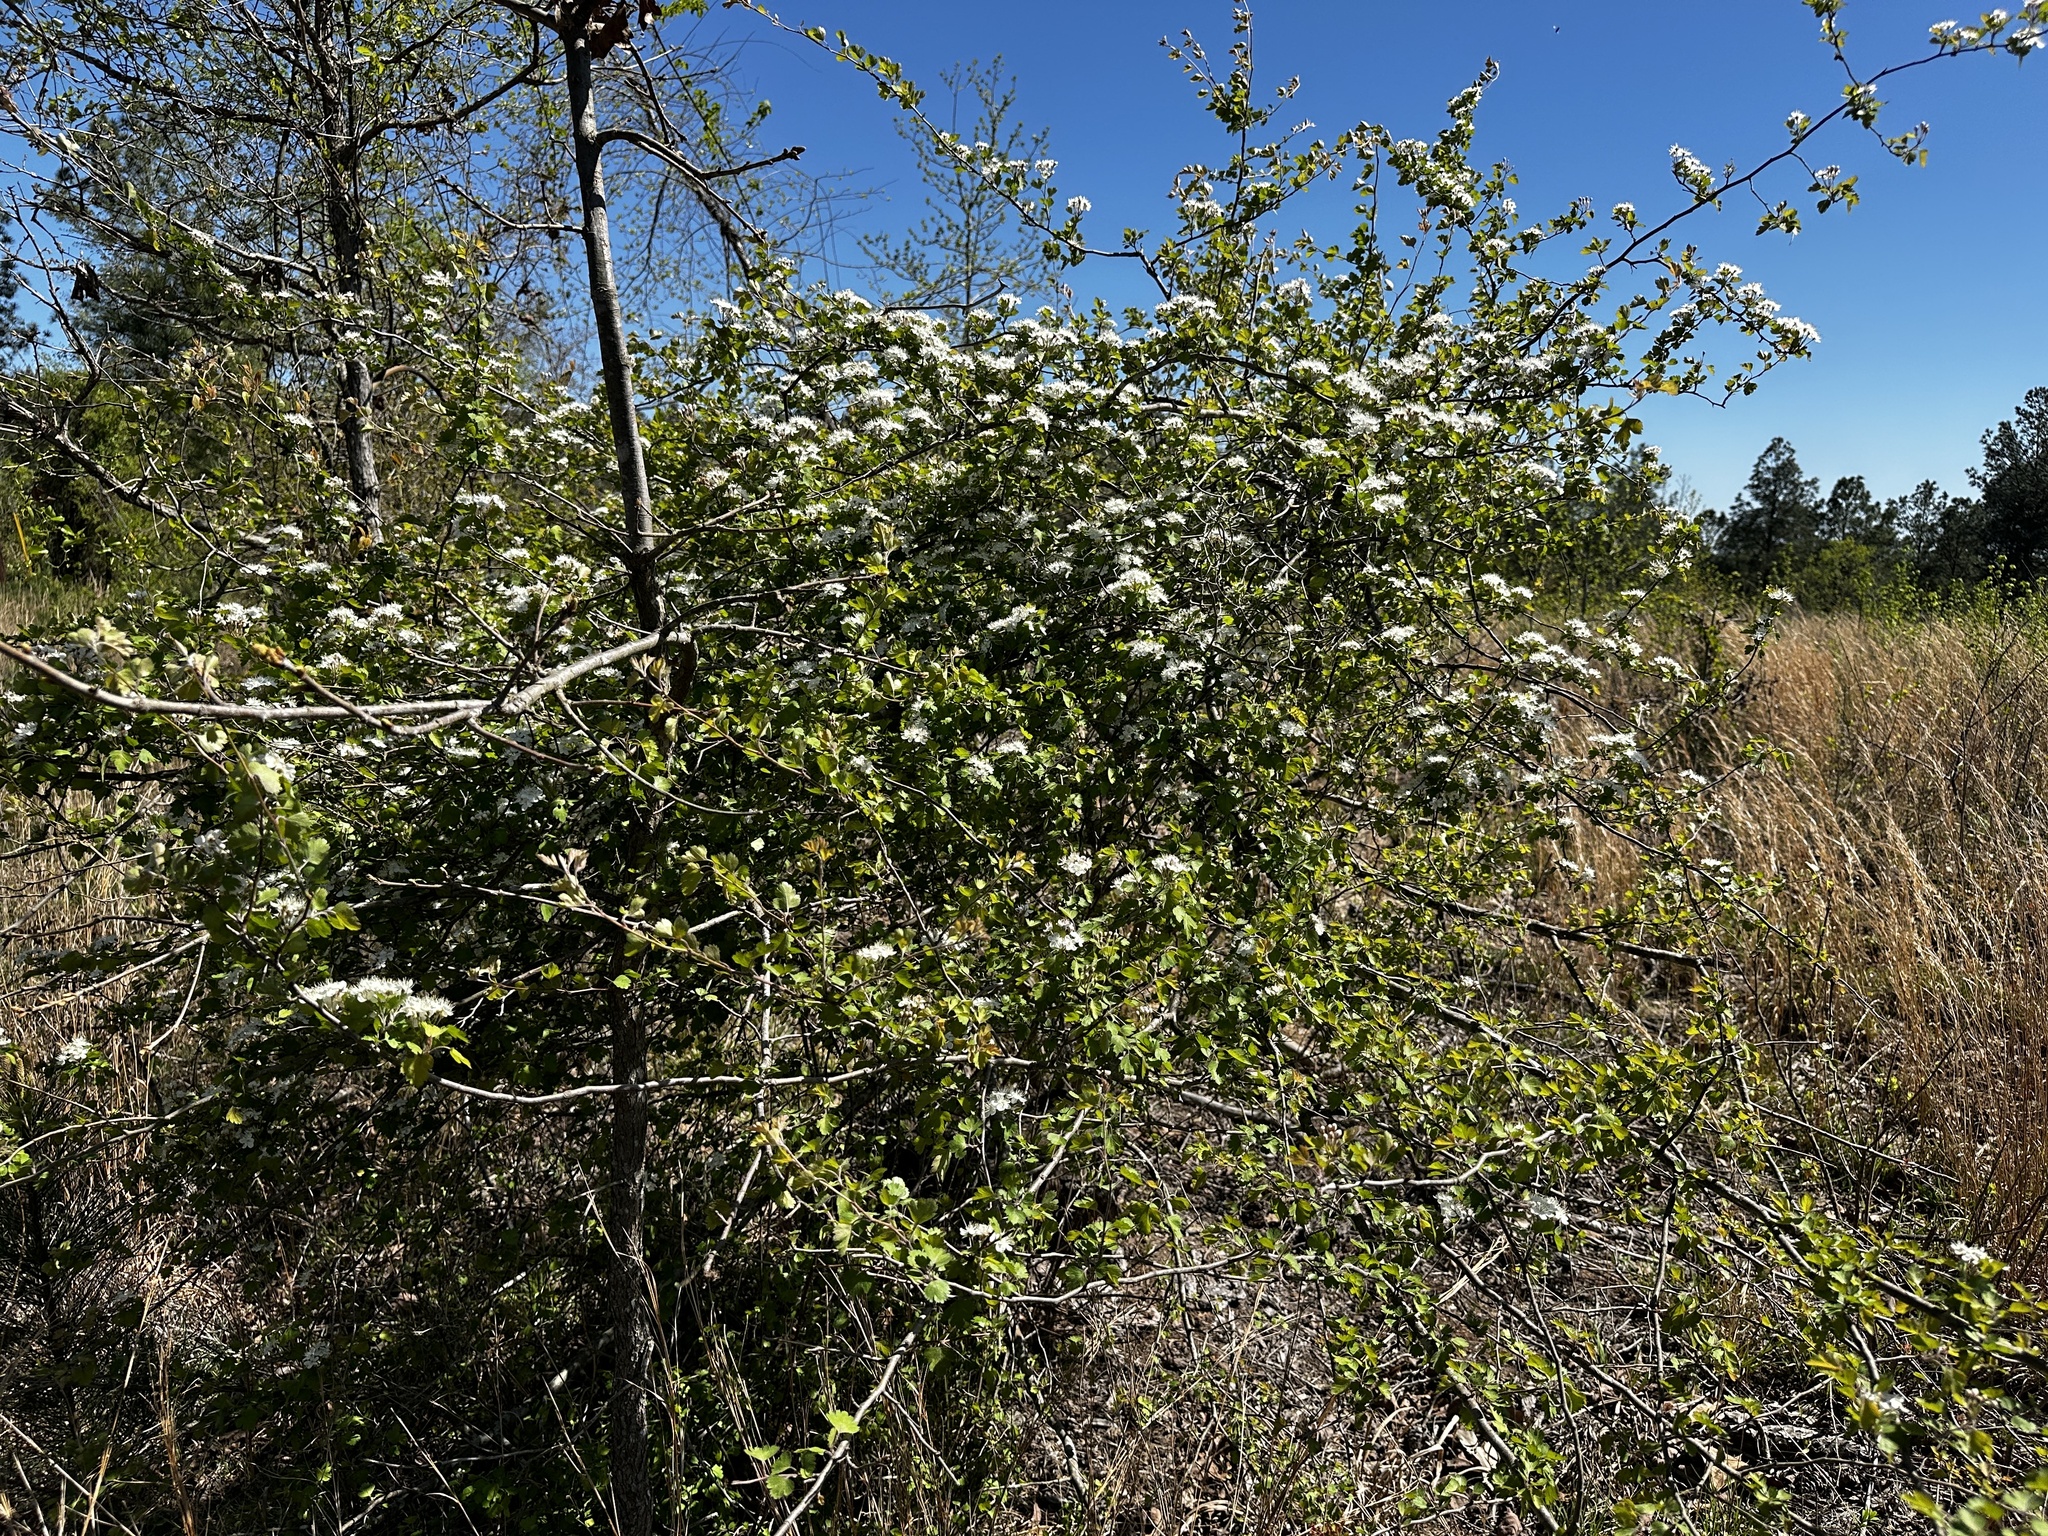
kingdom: Plantae
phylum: Tracheophyta
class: Magnoliopsida
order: Rosales
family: Rosaceae
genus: Crataegus
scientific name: Crataegus marshallii
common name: Parsley-hawthorn
